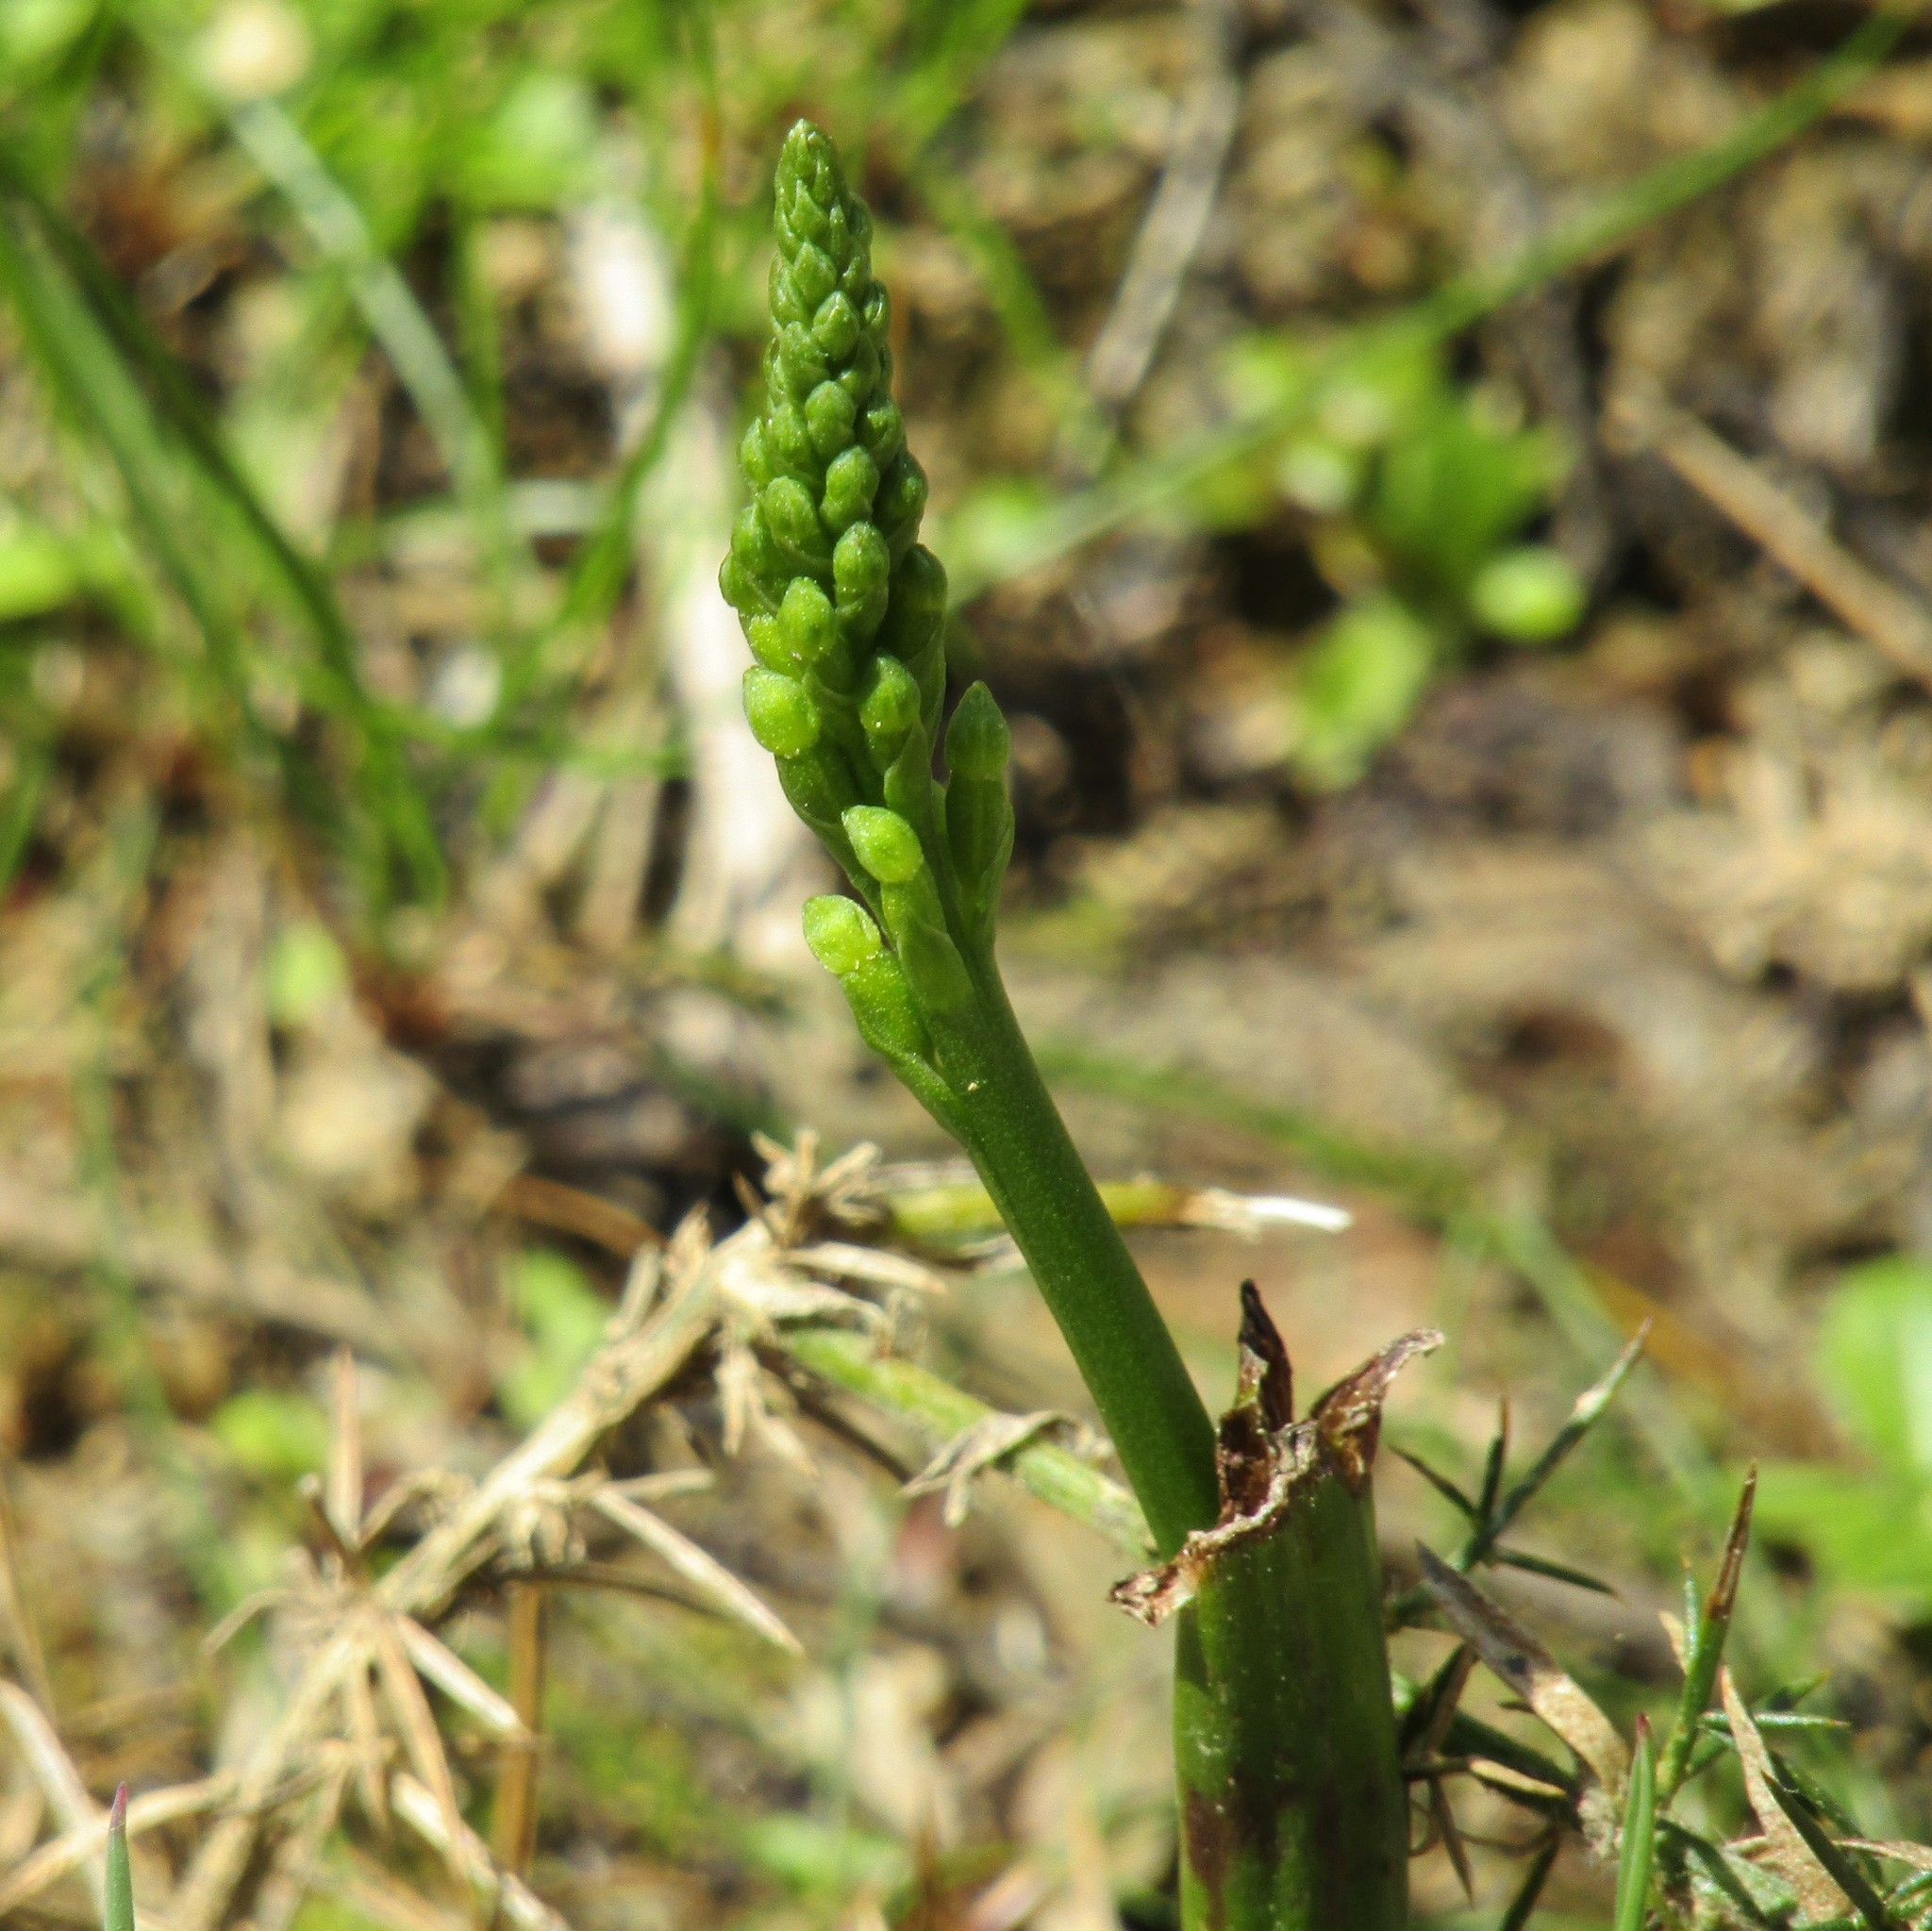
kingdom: Plantae
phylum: Tracheophyta
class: Liliopsida
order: Asparagales
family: Orchidaceae
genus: Microtis
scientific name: Microtis unifolia
